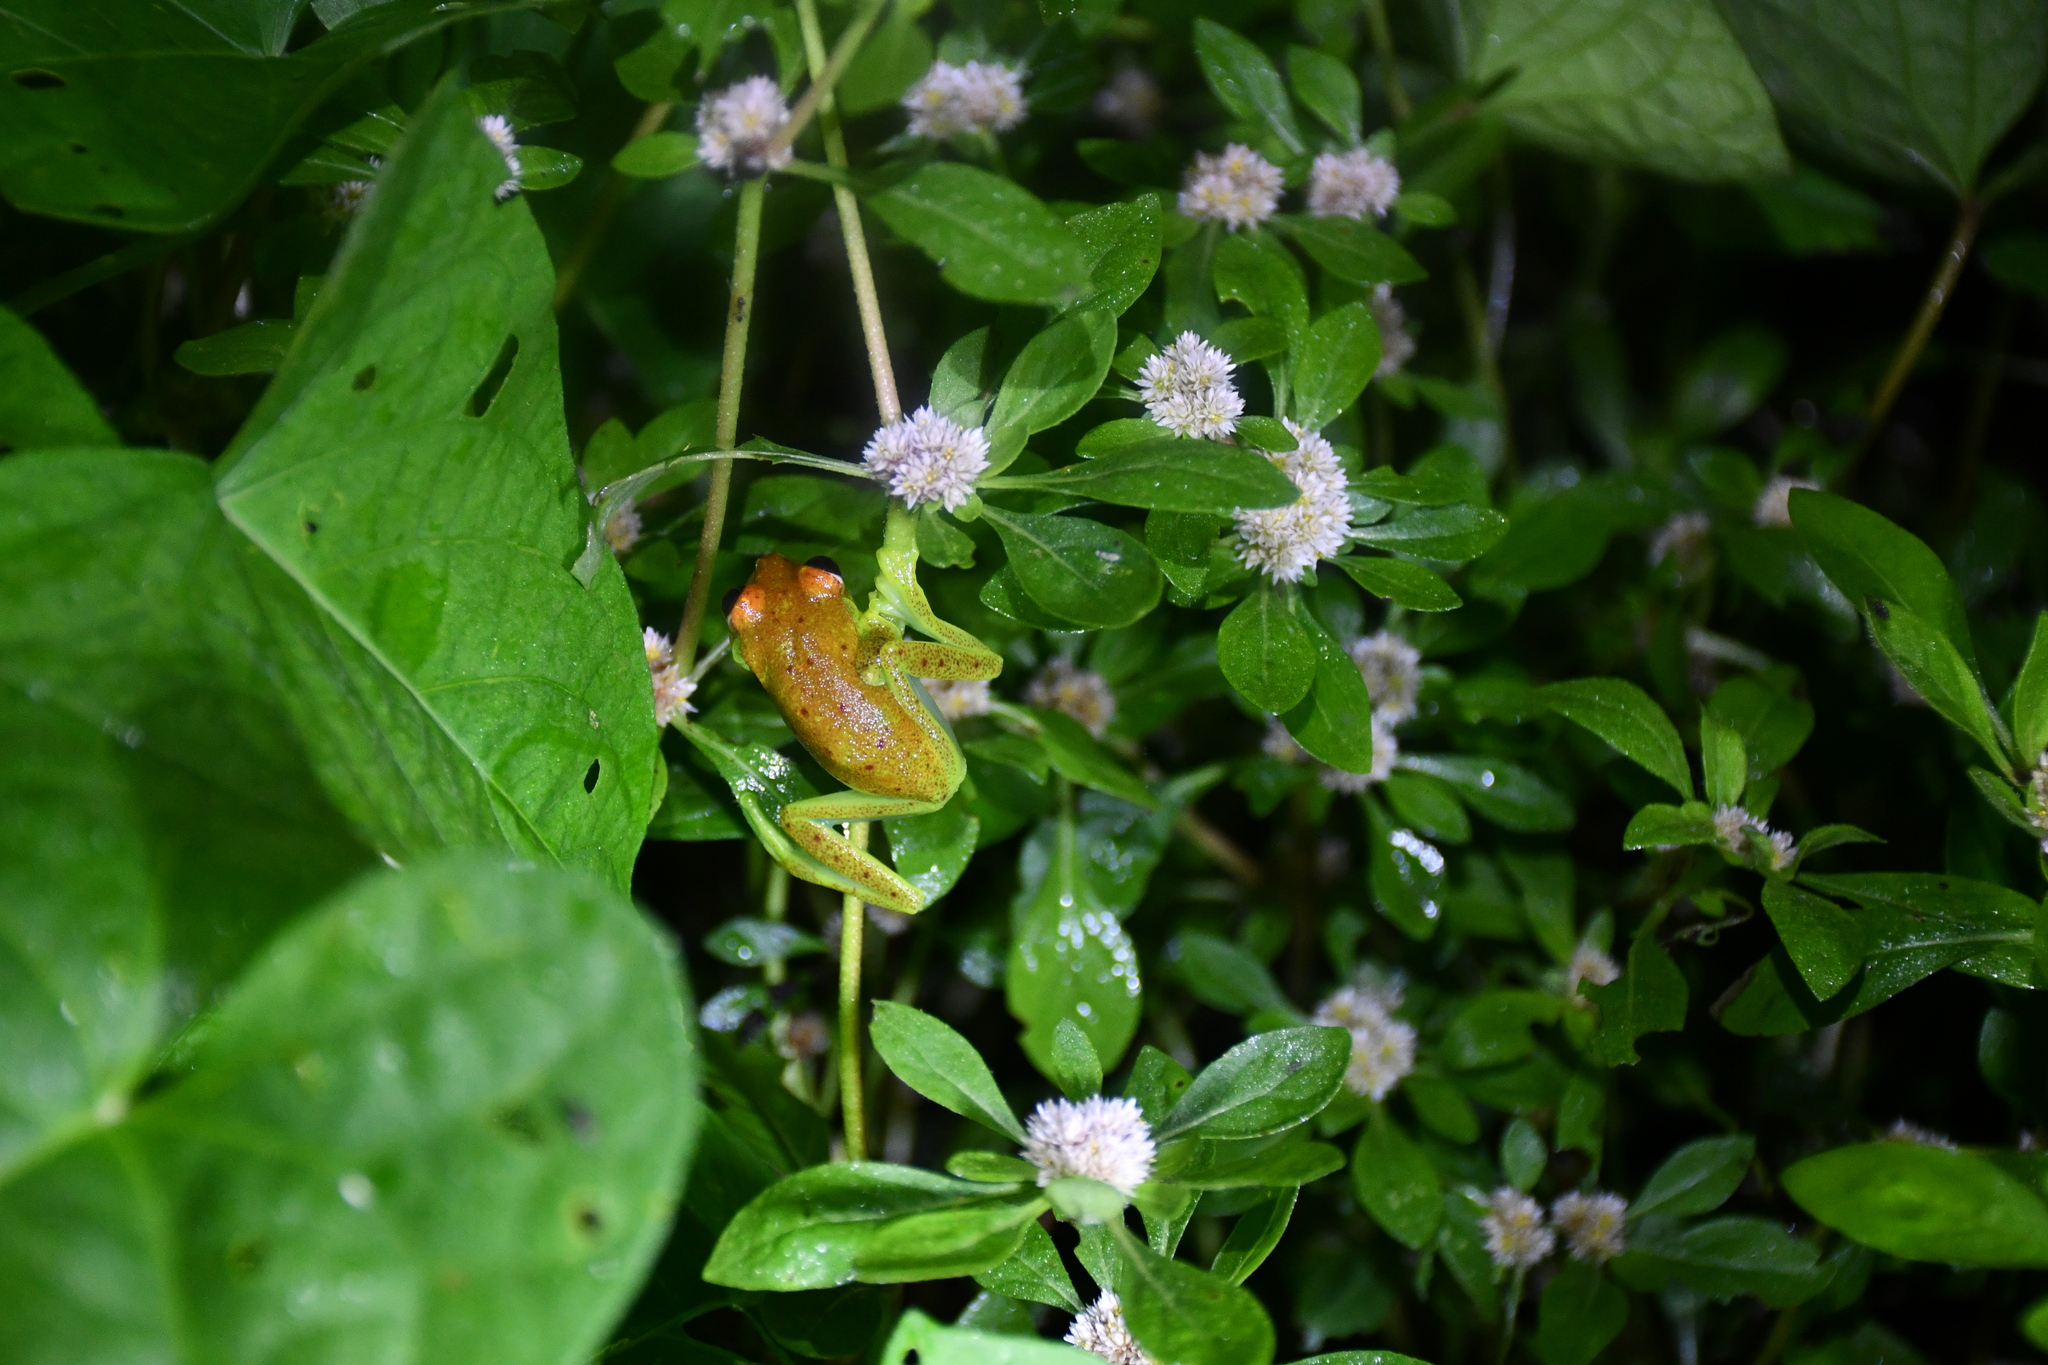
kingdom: Animalia
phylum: Chordata
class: Amphibia
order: Anura
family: Hylidae
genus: Boana
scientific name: Boana punctata
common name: Polka-dot treefrog
